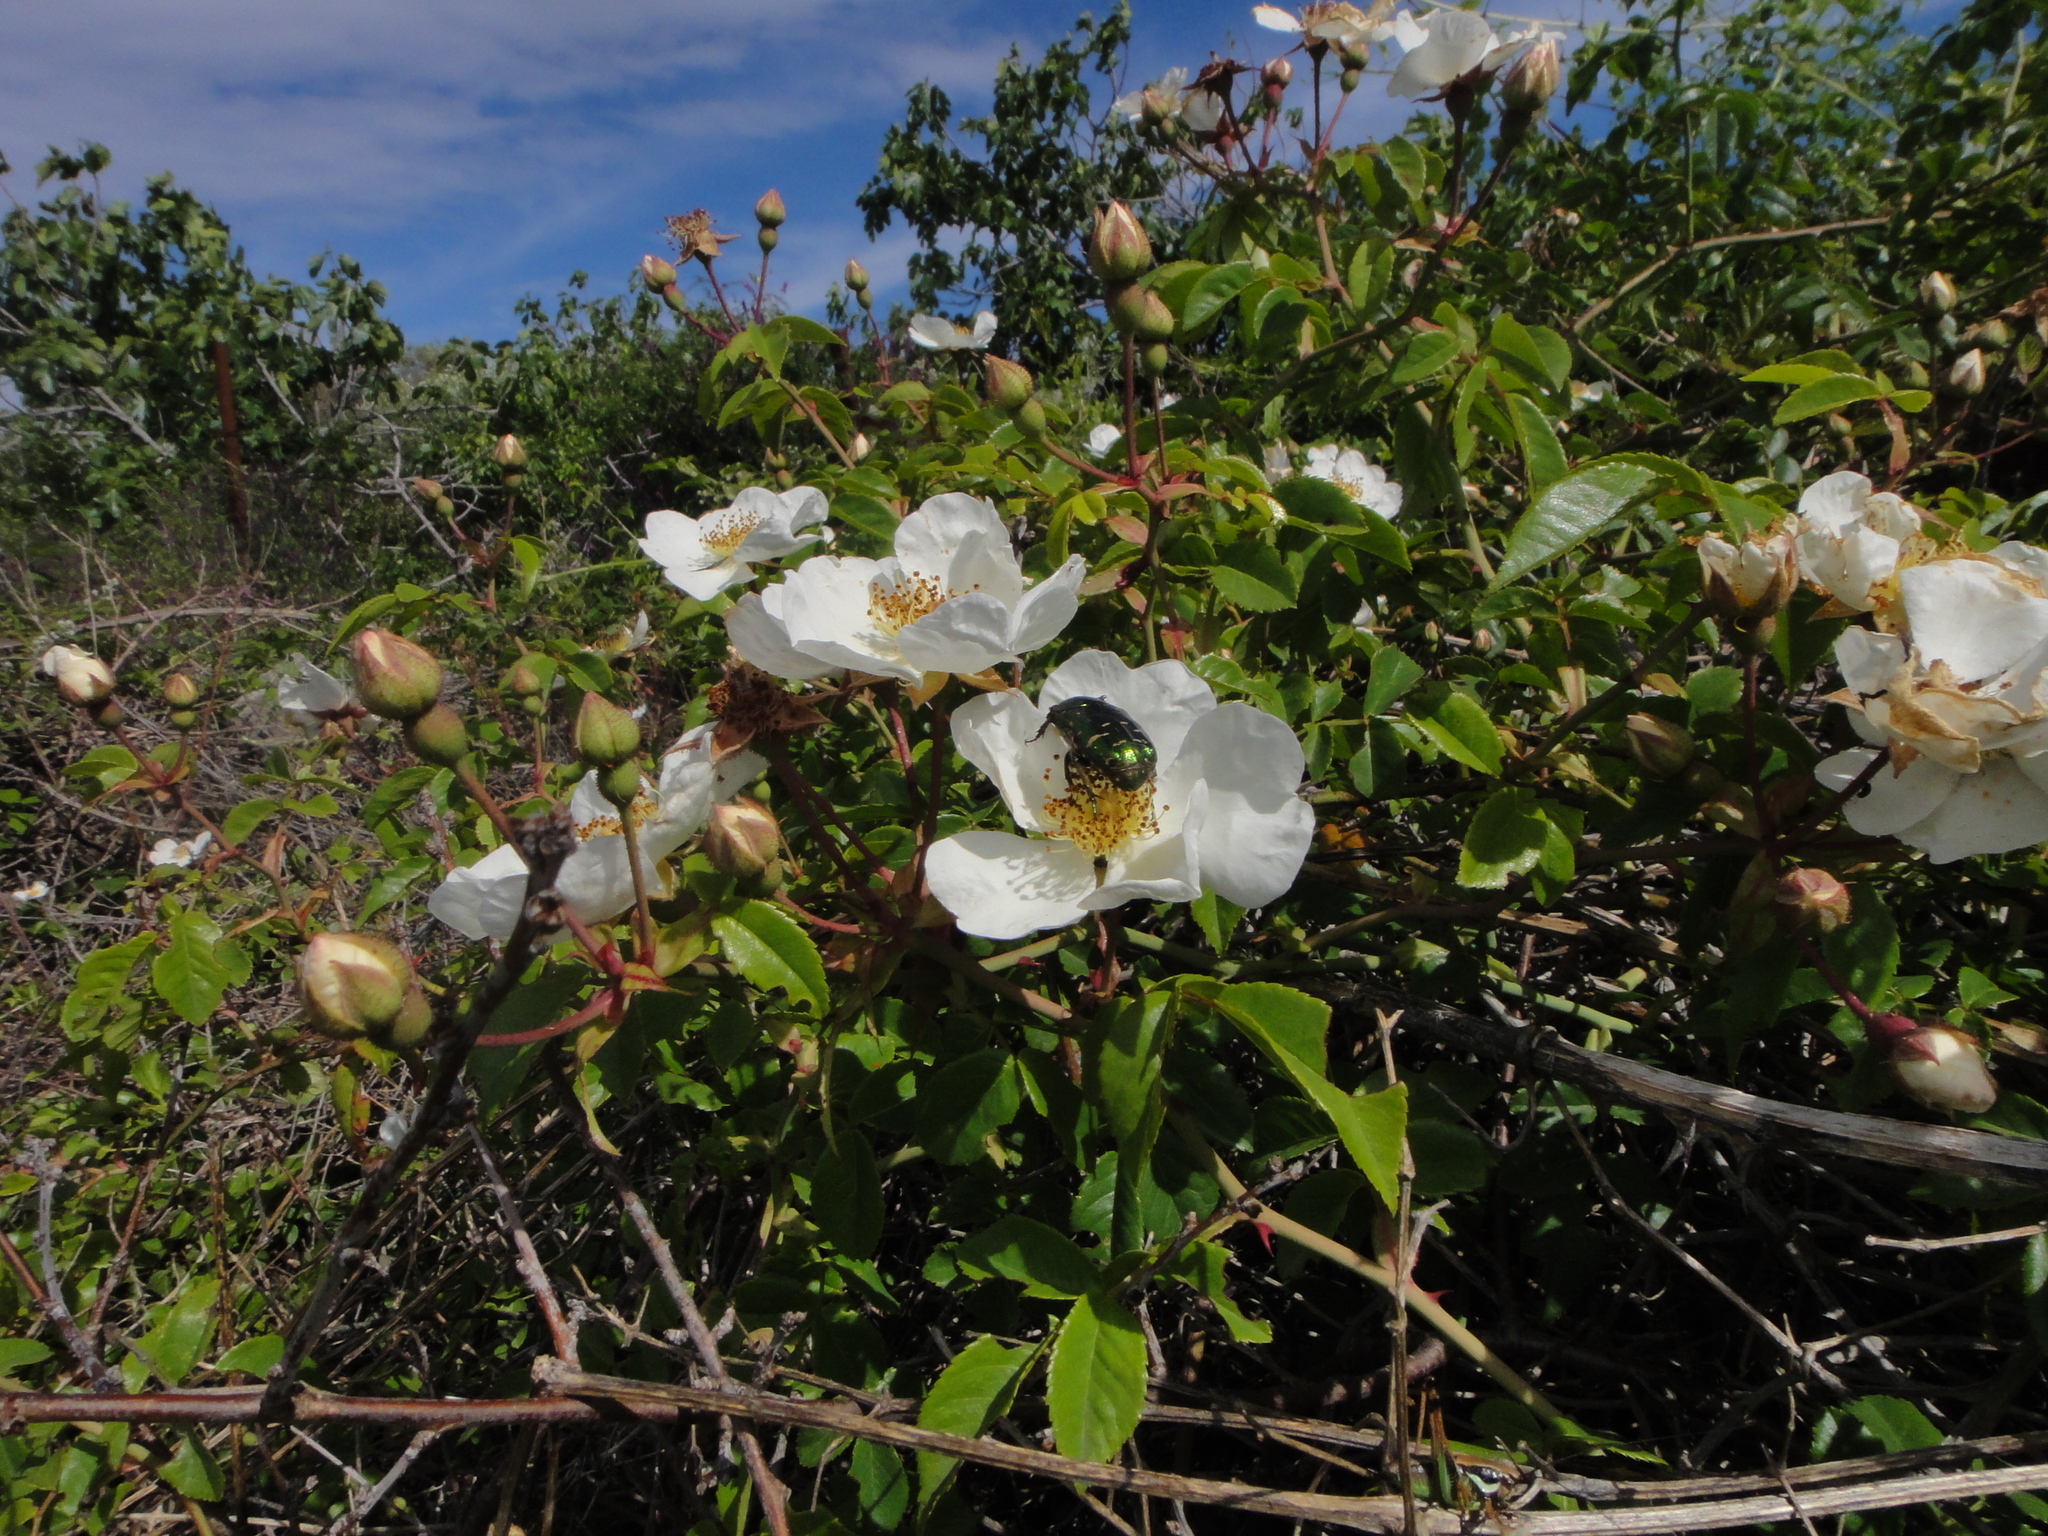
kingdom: Plantae
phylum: Tracheophyta
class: Magnoliopsida
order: Rosales
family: Rosaceae
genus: Rosa
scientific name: Rosa sempervirens
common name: Evergreen rose
